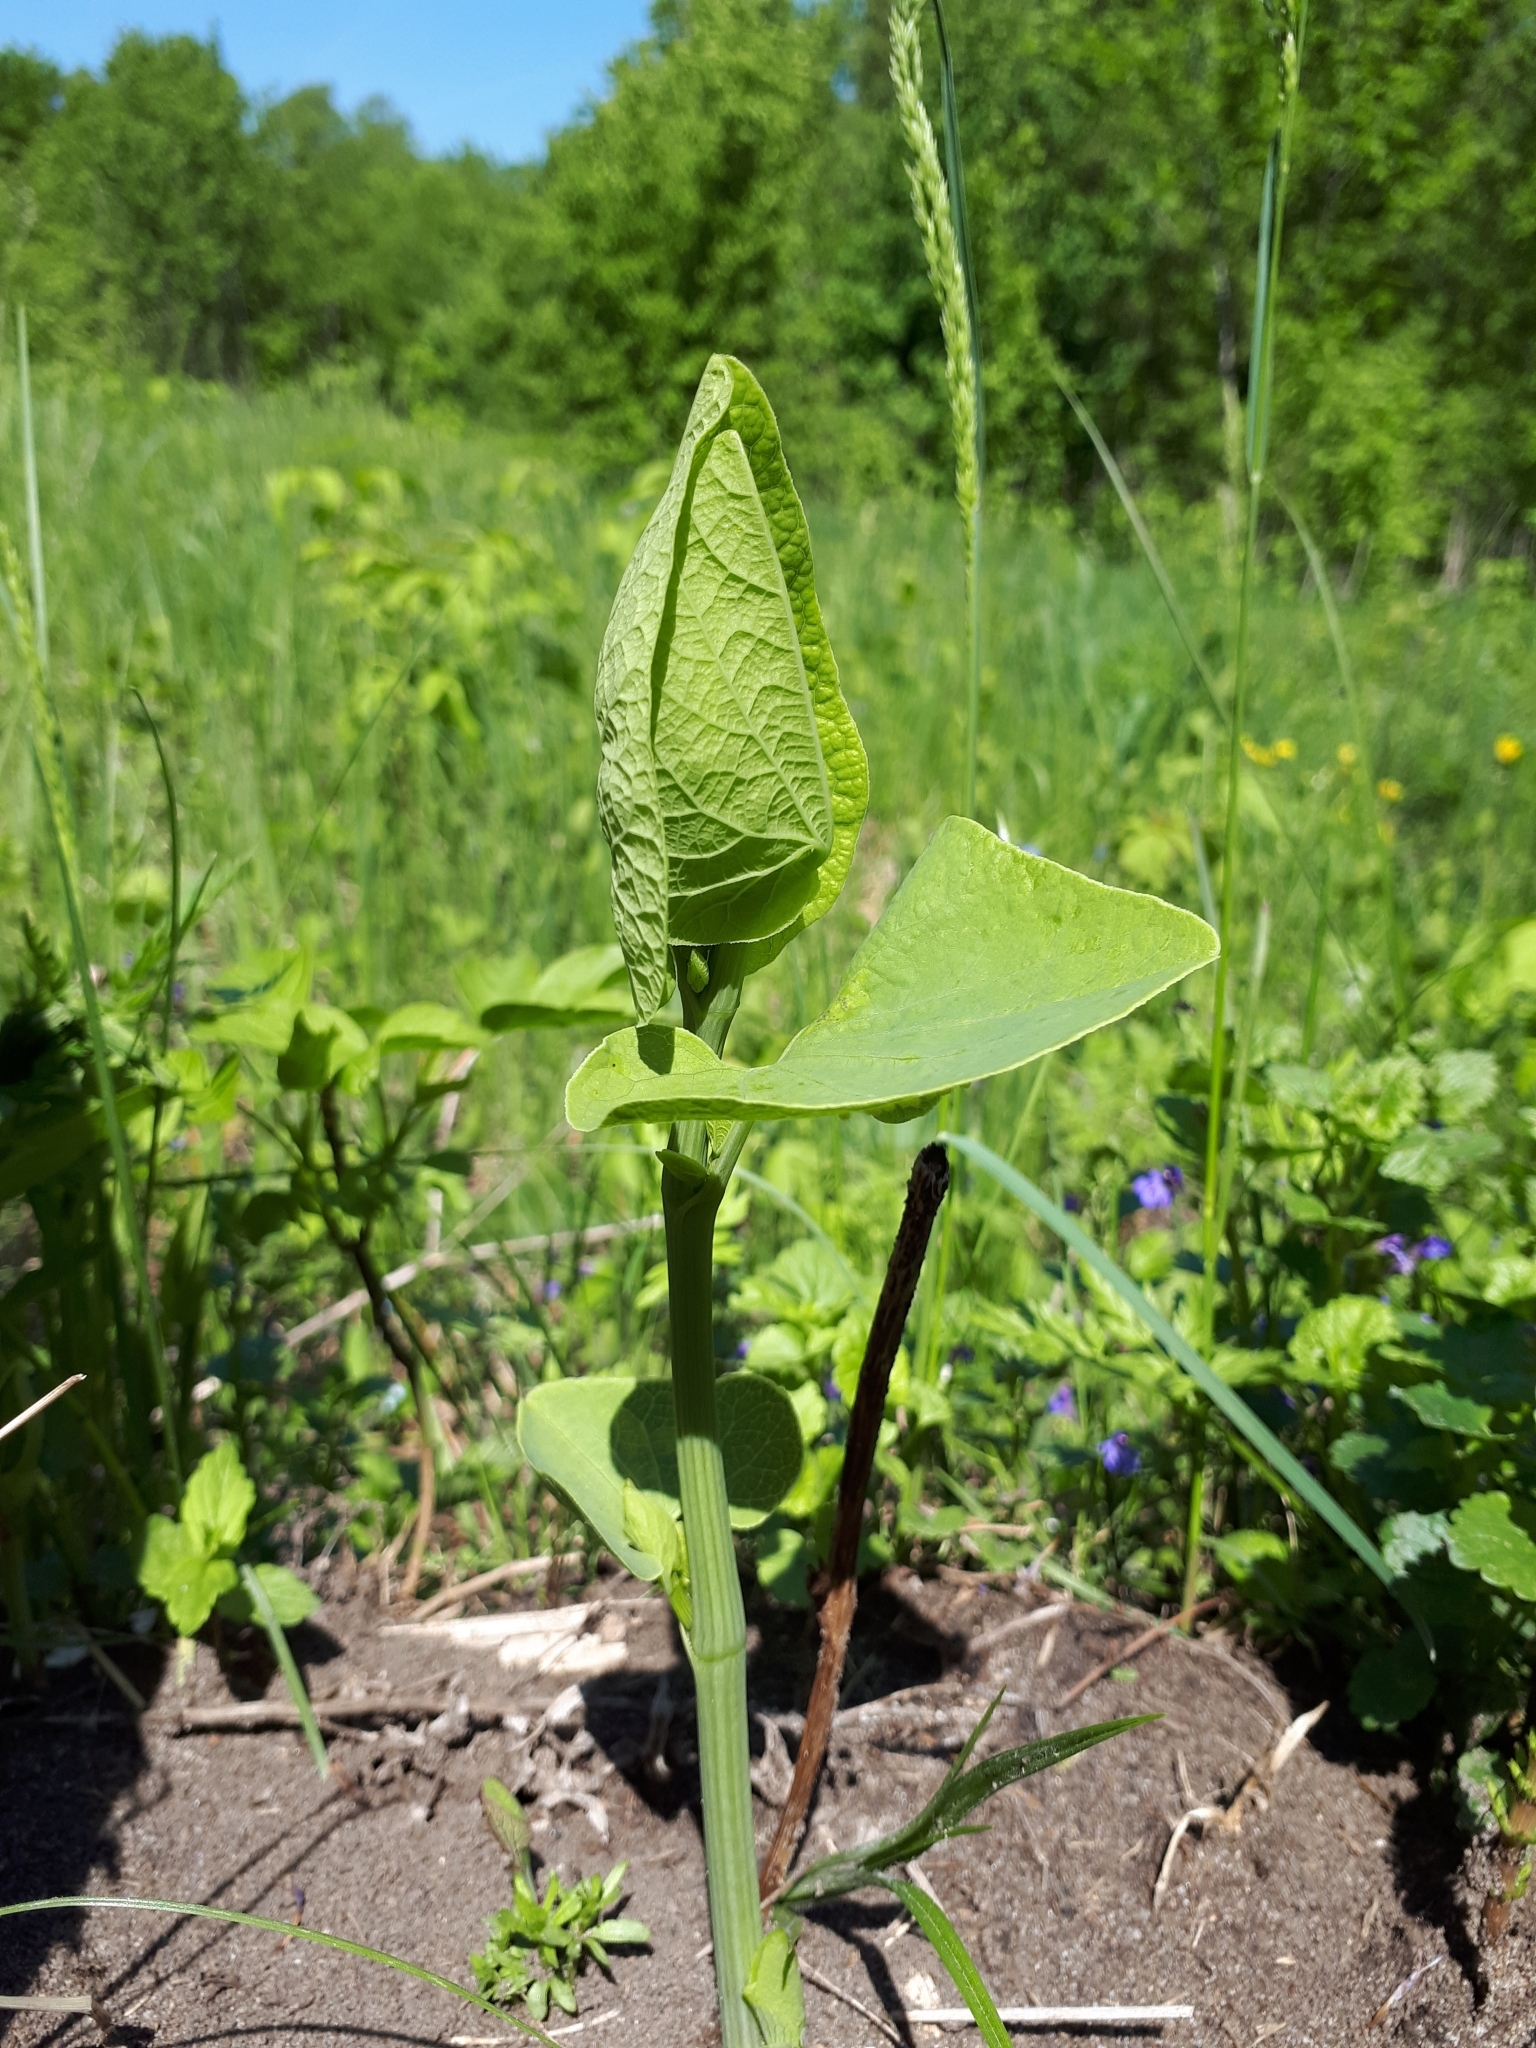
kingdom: Plantae
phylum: Tracheophyta
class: Magnoliopsida
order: Piperales
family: Aristolochiaceae
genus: Aristolochia
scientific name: Aristolochia clematitis
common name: Birthwort
